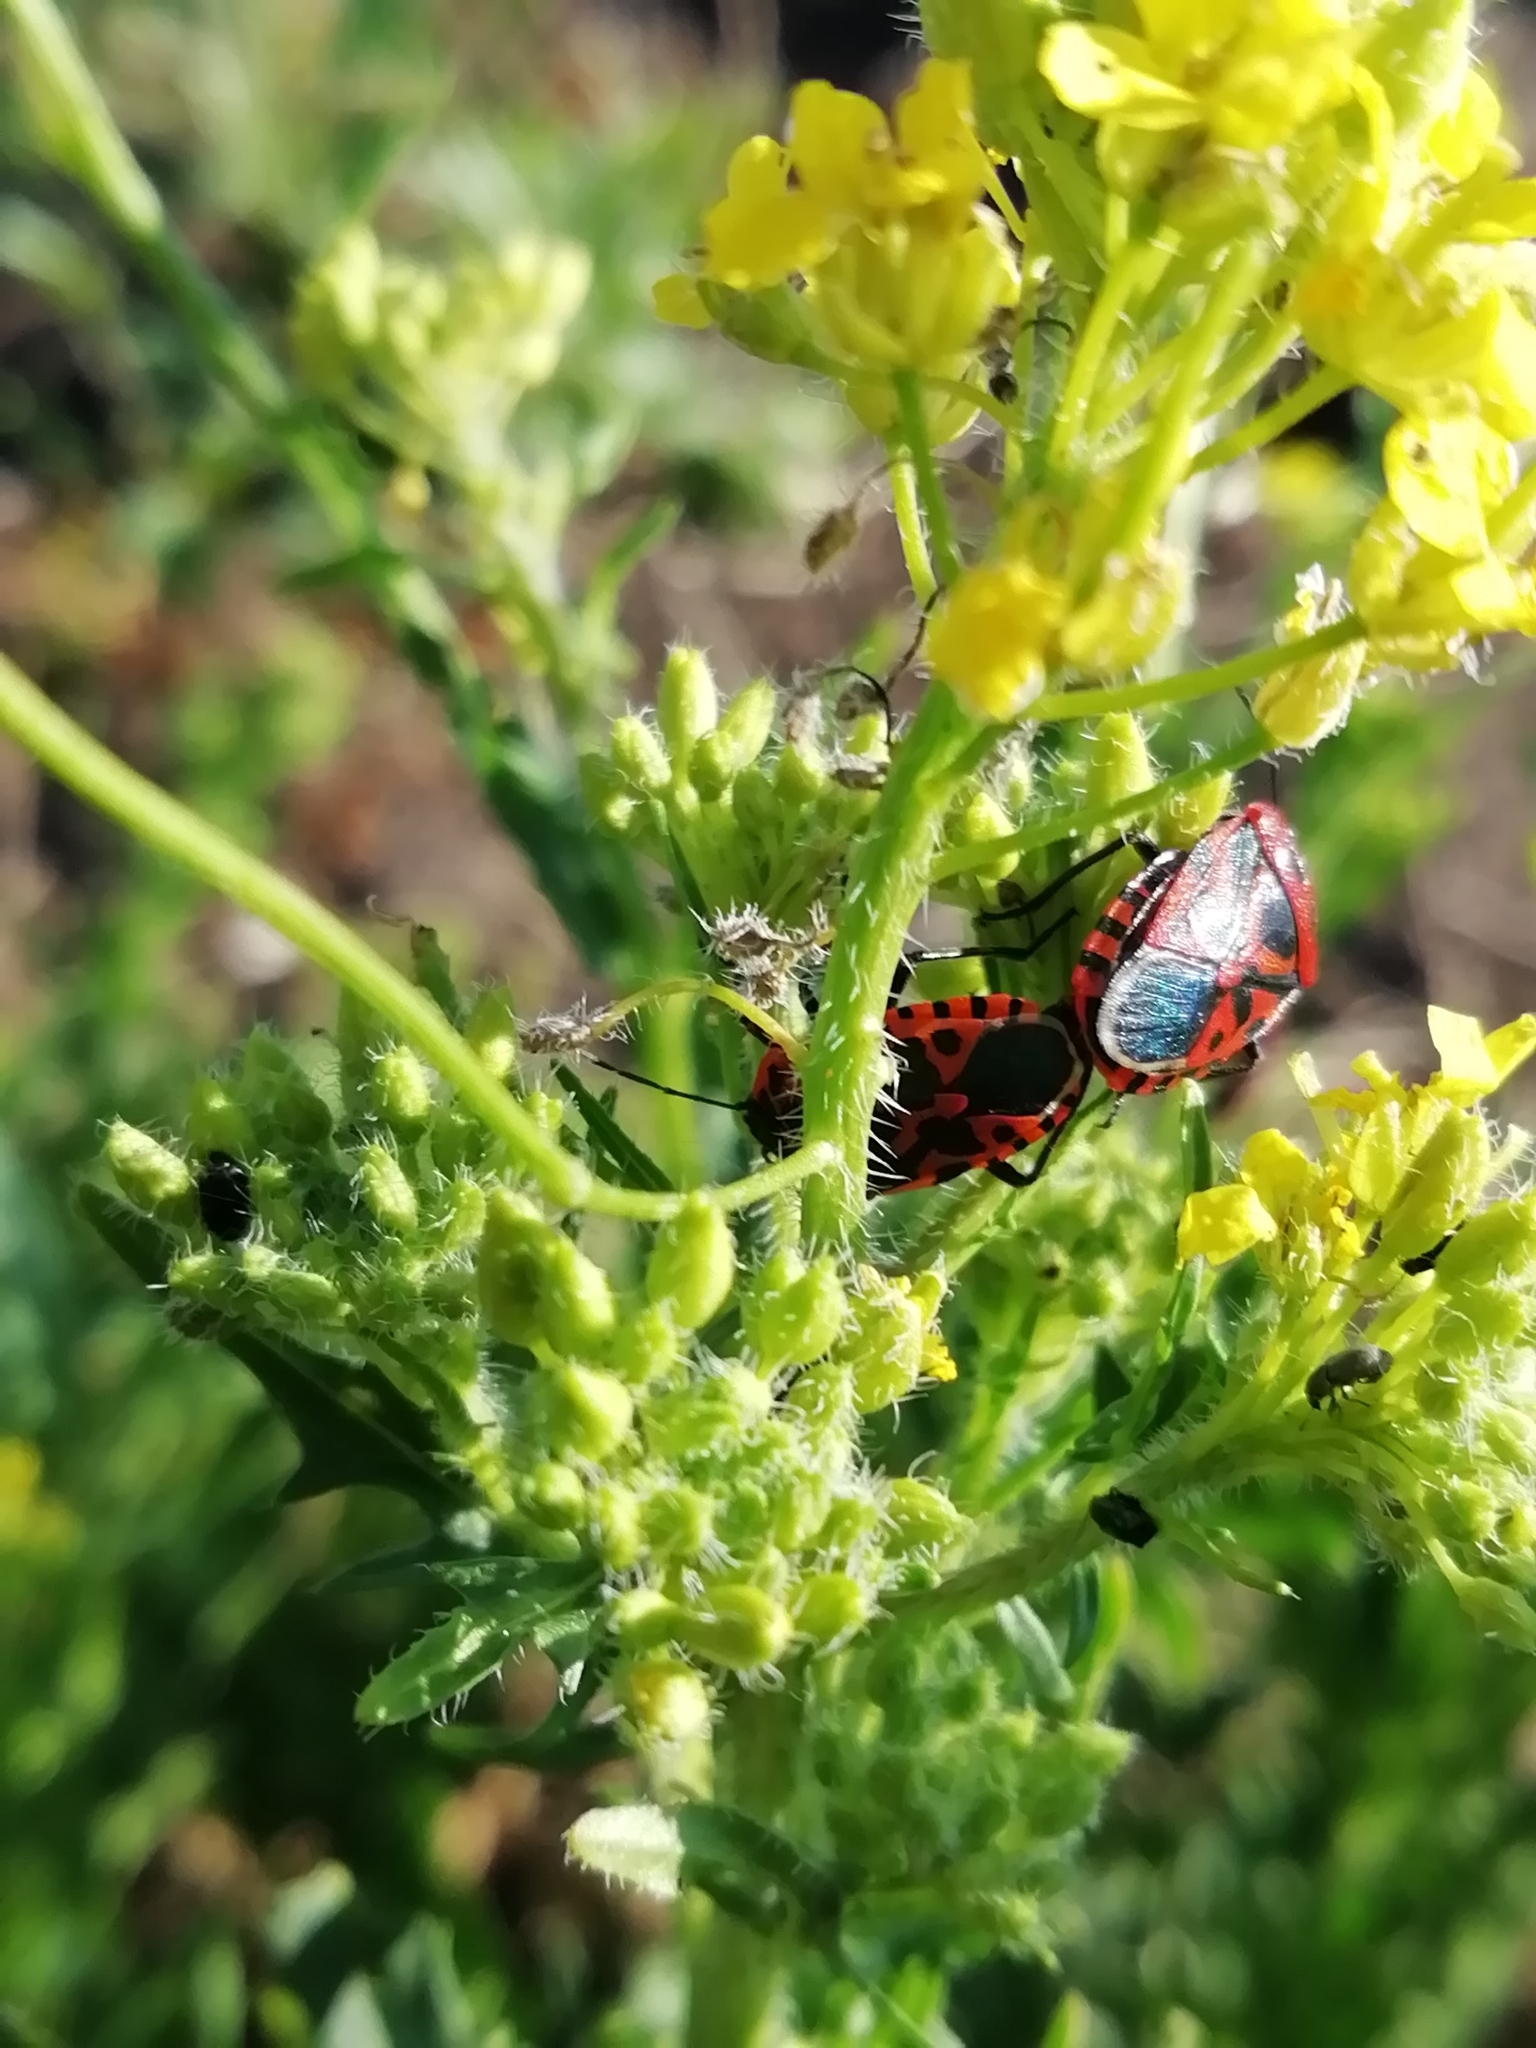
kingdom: Animalia
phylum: Arthropoda
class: Insecta
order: Hemiptera
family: Pentatomidae
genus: Eurydema
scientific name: Eurydema ventralis
